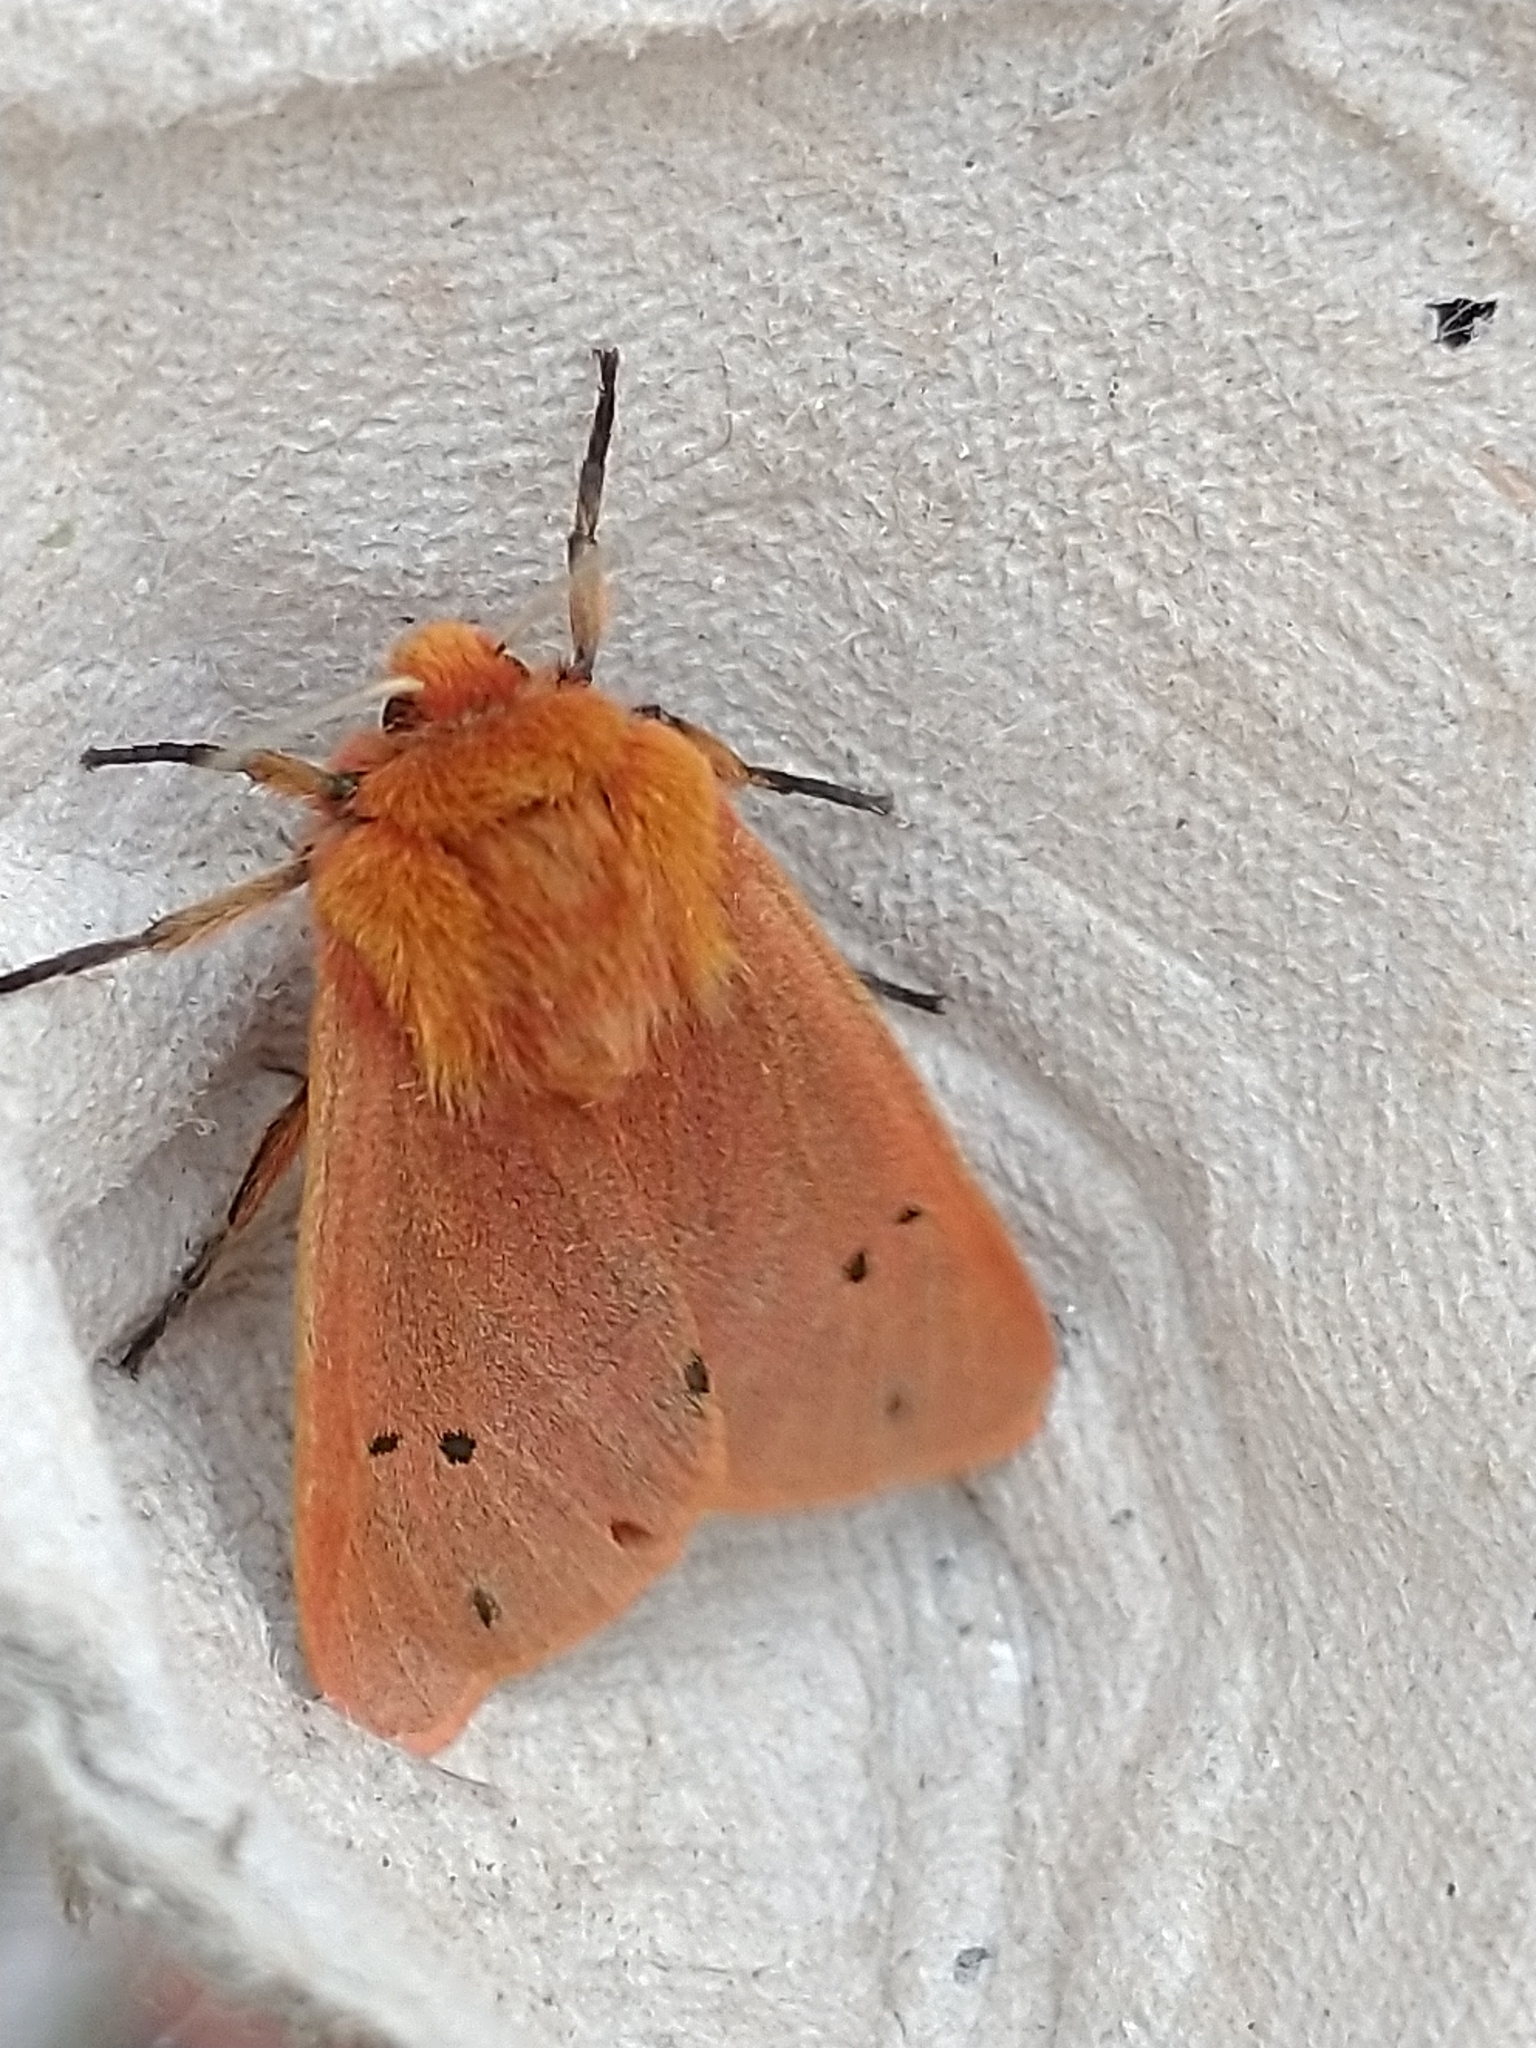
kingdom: Animalia
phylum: Arthropoda
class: Insecta
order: Lepidoptera
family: Erebidae
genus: Phragmatobia
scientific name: Phragmatobia fuliginosa
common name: Ruby tiger
